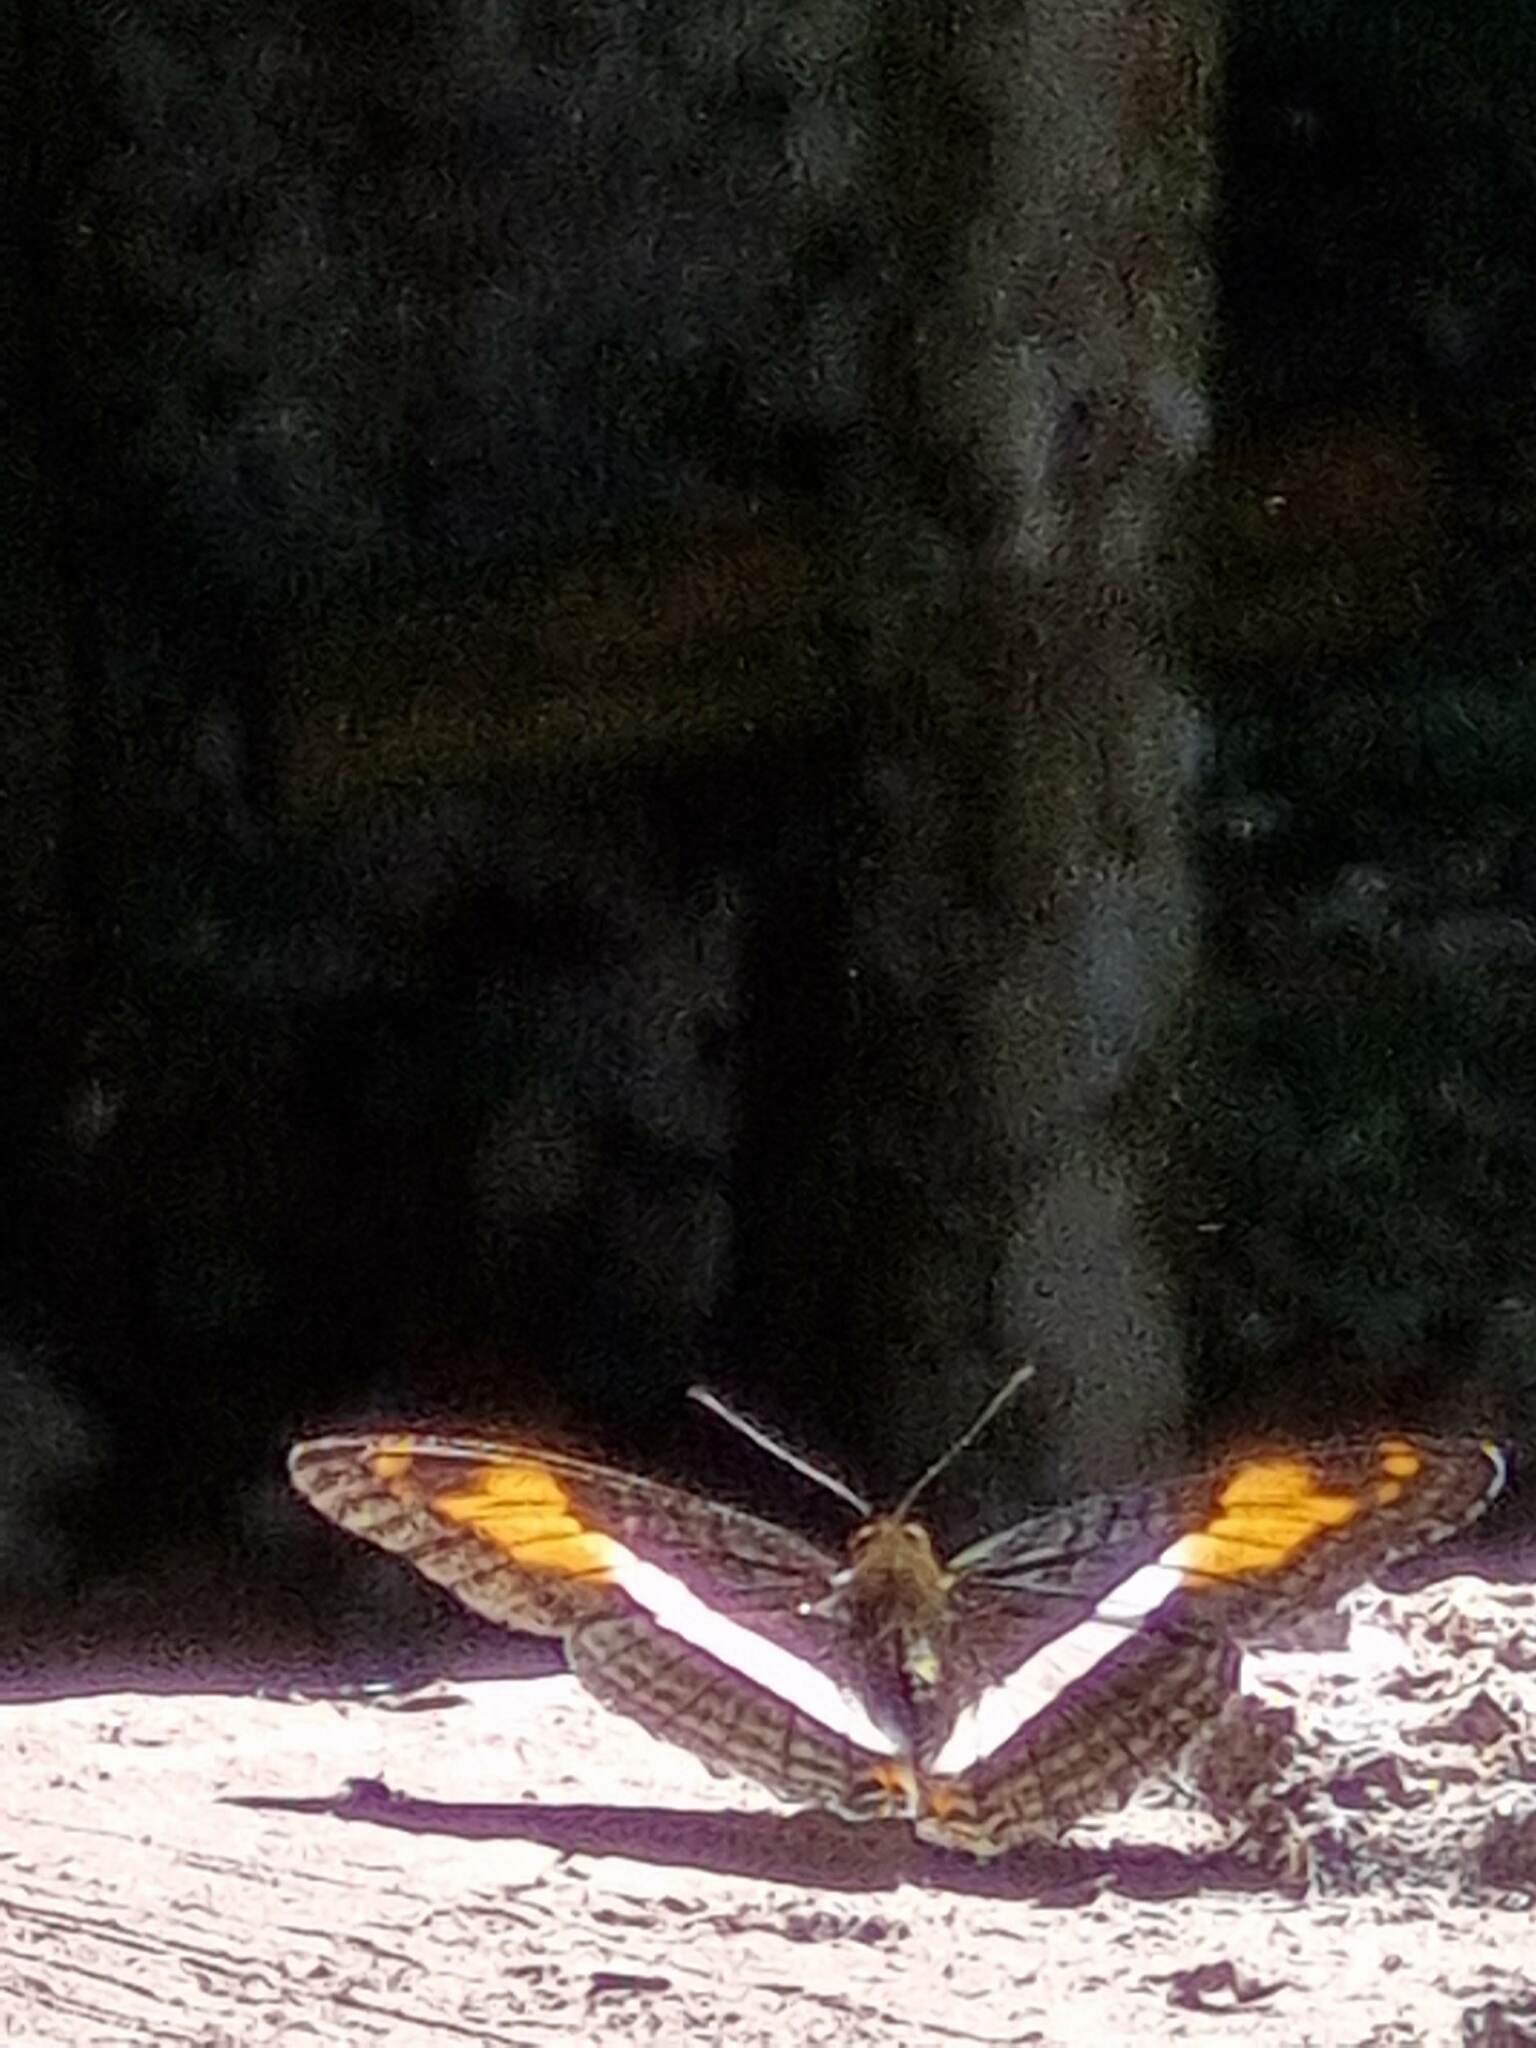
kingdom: Animalia
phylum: Arthropoda
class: Insecta
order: Lepidoptera
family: Nymphalidae
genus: Limenitis
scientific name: Limenitis malea
